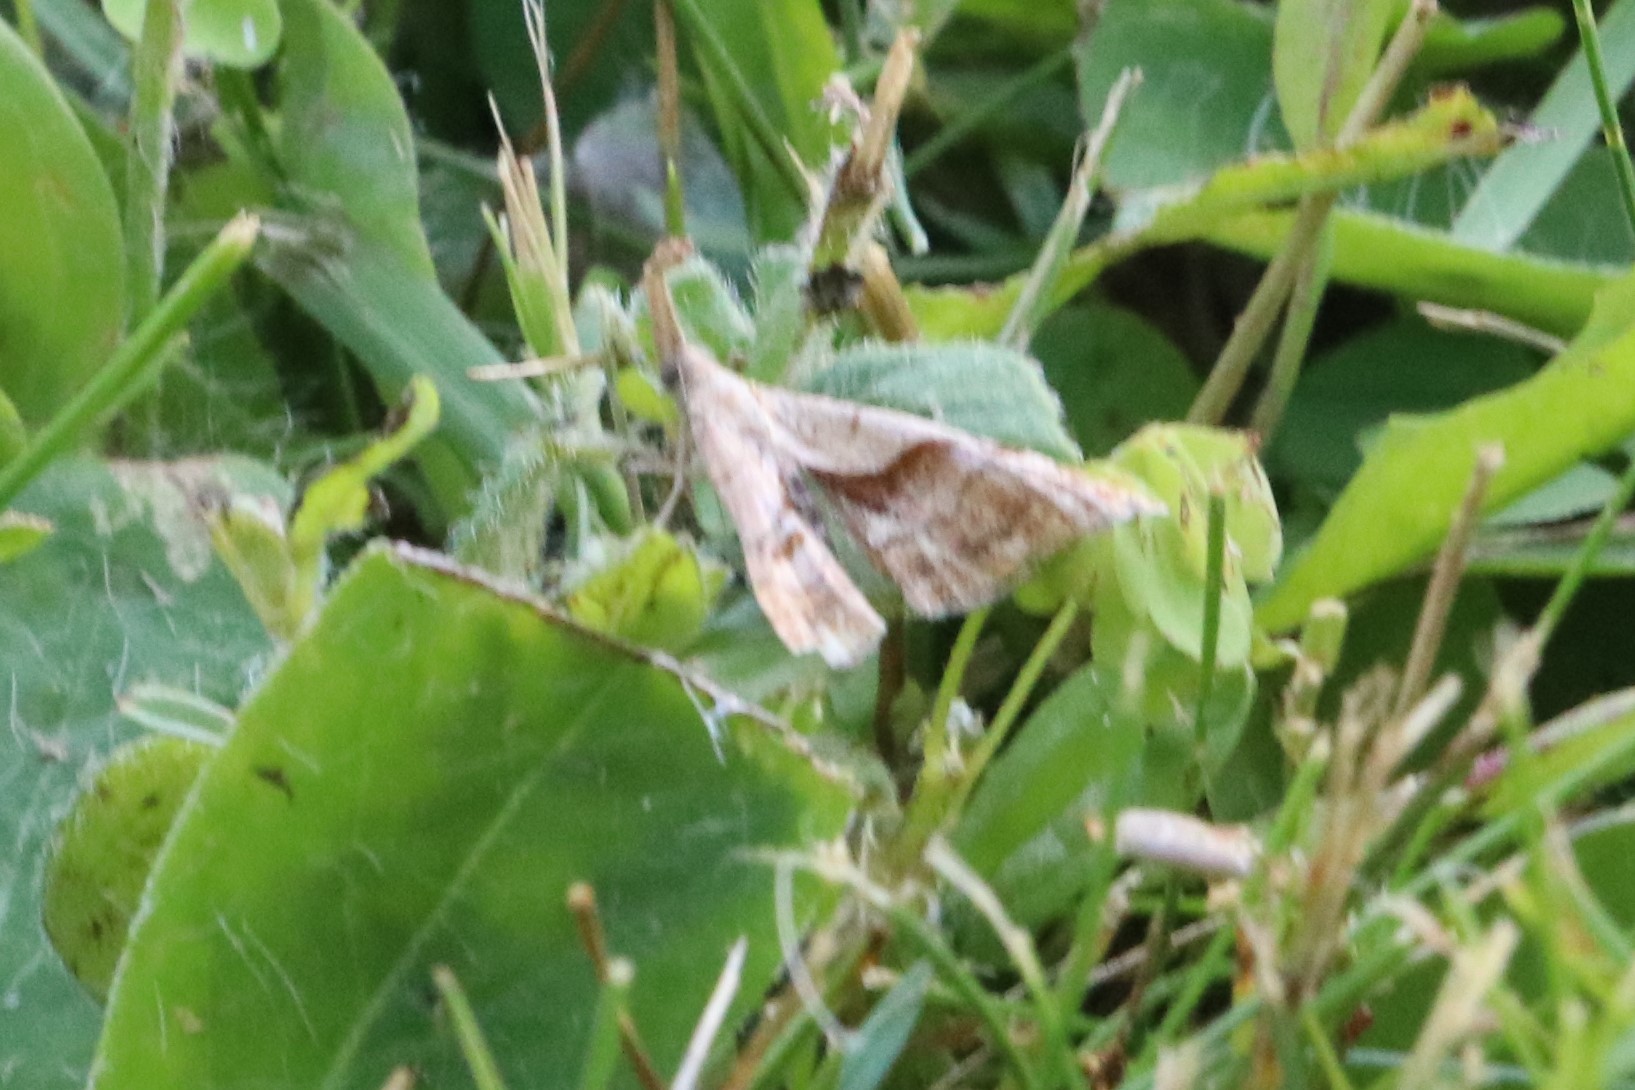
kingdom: Animalia
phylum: Arthropoda
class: Insecta
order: Lepidoptera
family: Erebidae
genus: Palthis
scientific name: Palthis angulalis
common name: Dark-spotted palthis moth
